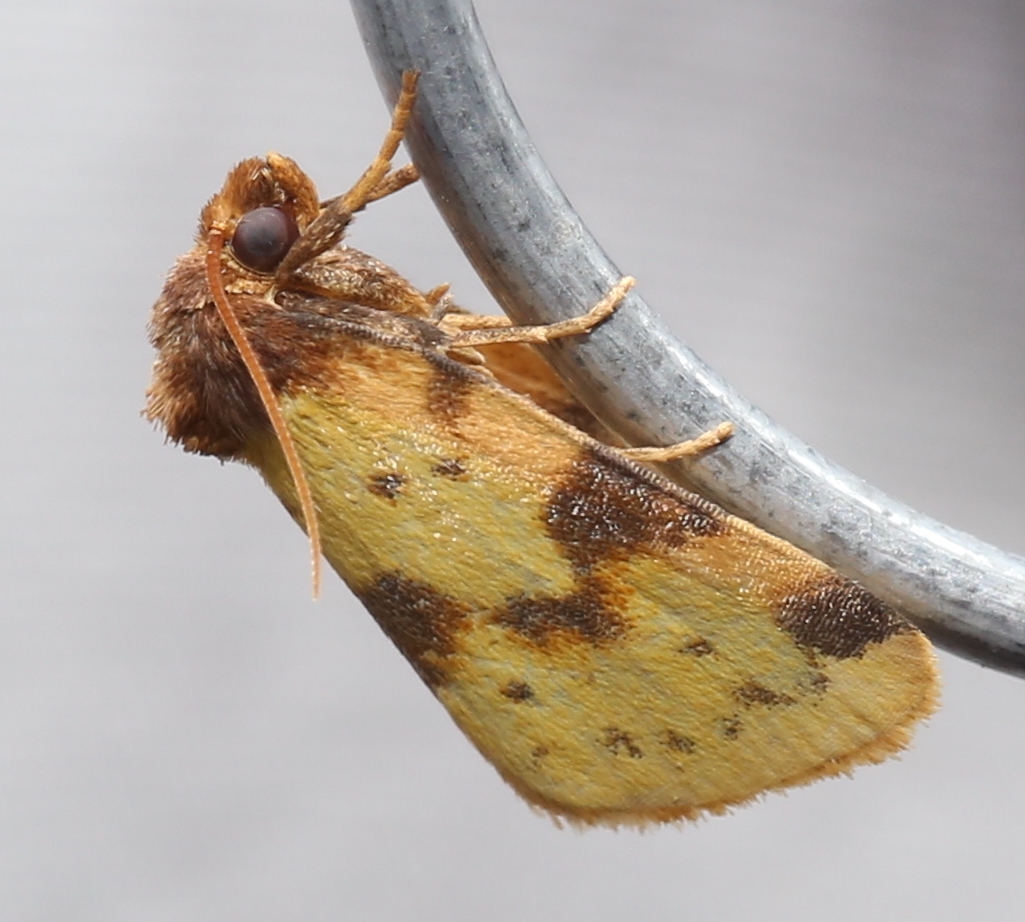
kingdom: Animalia
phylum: Arthropoda
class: Insecta
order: Lepidoptera
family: Noctuidae
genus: Azenia
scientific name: Azenia obtusa
